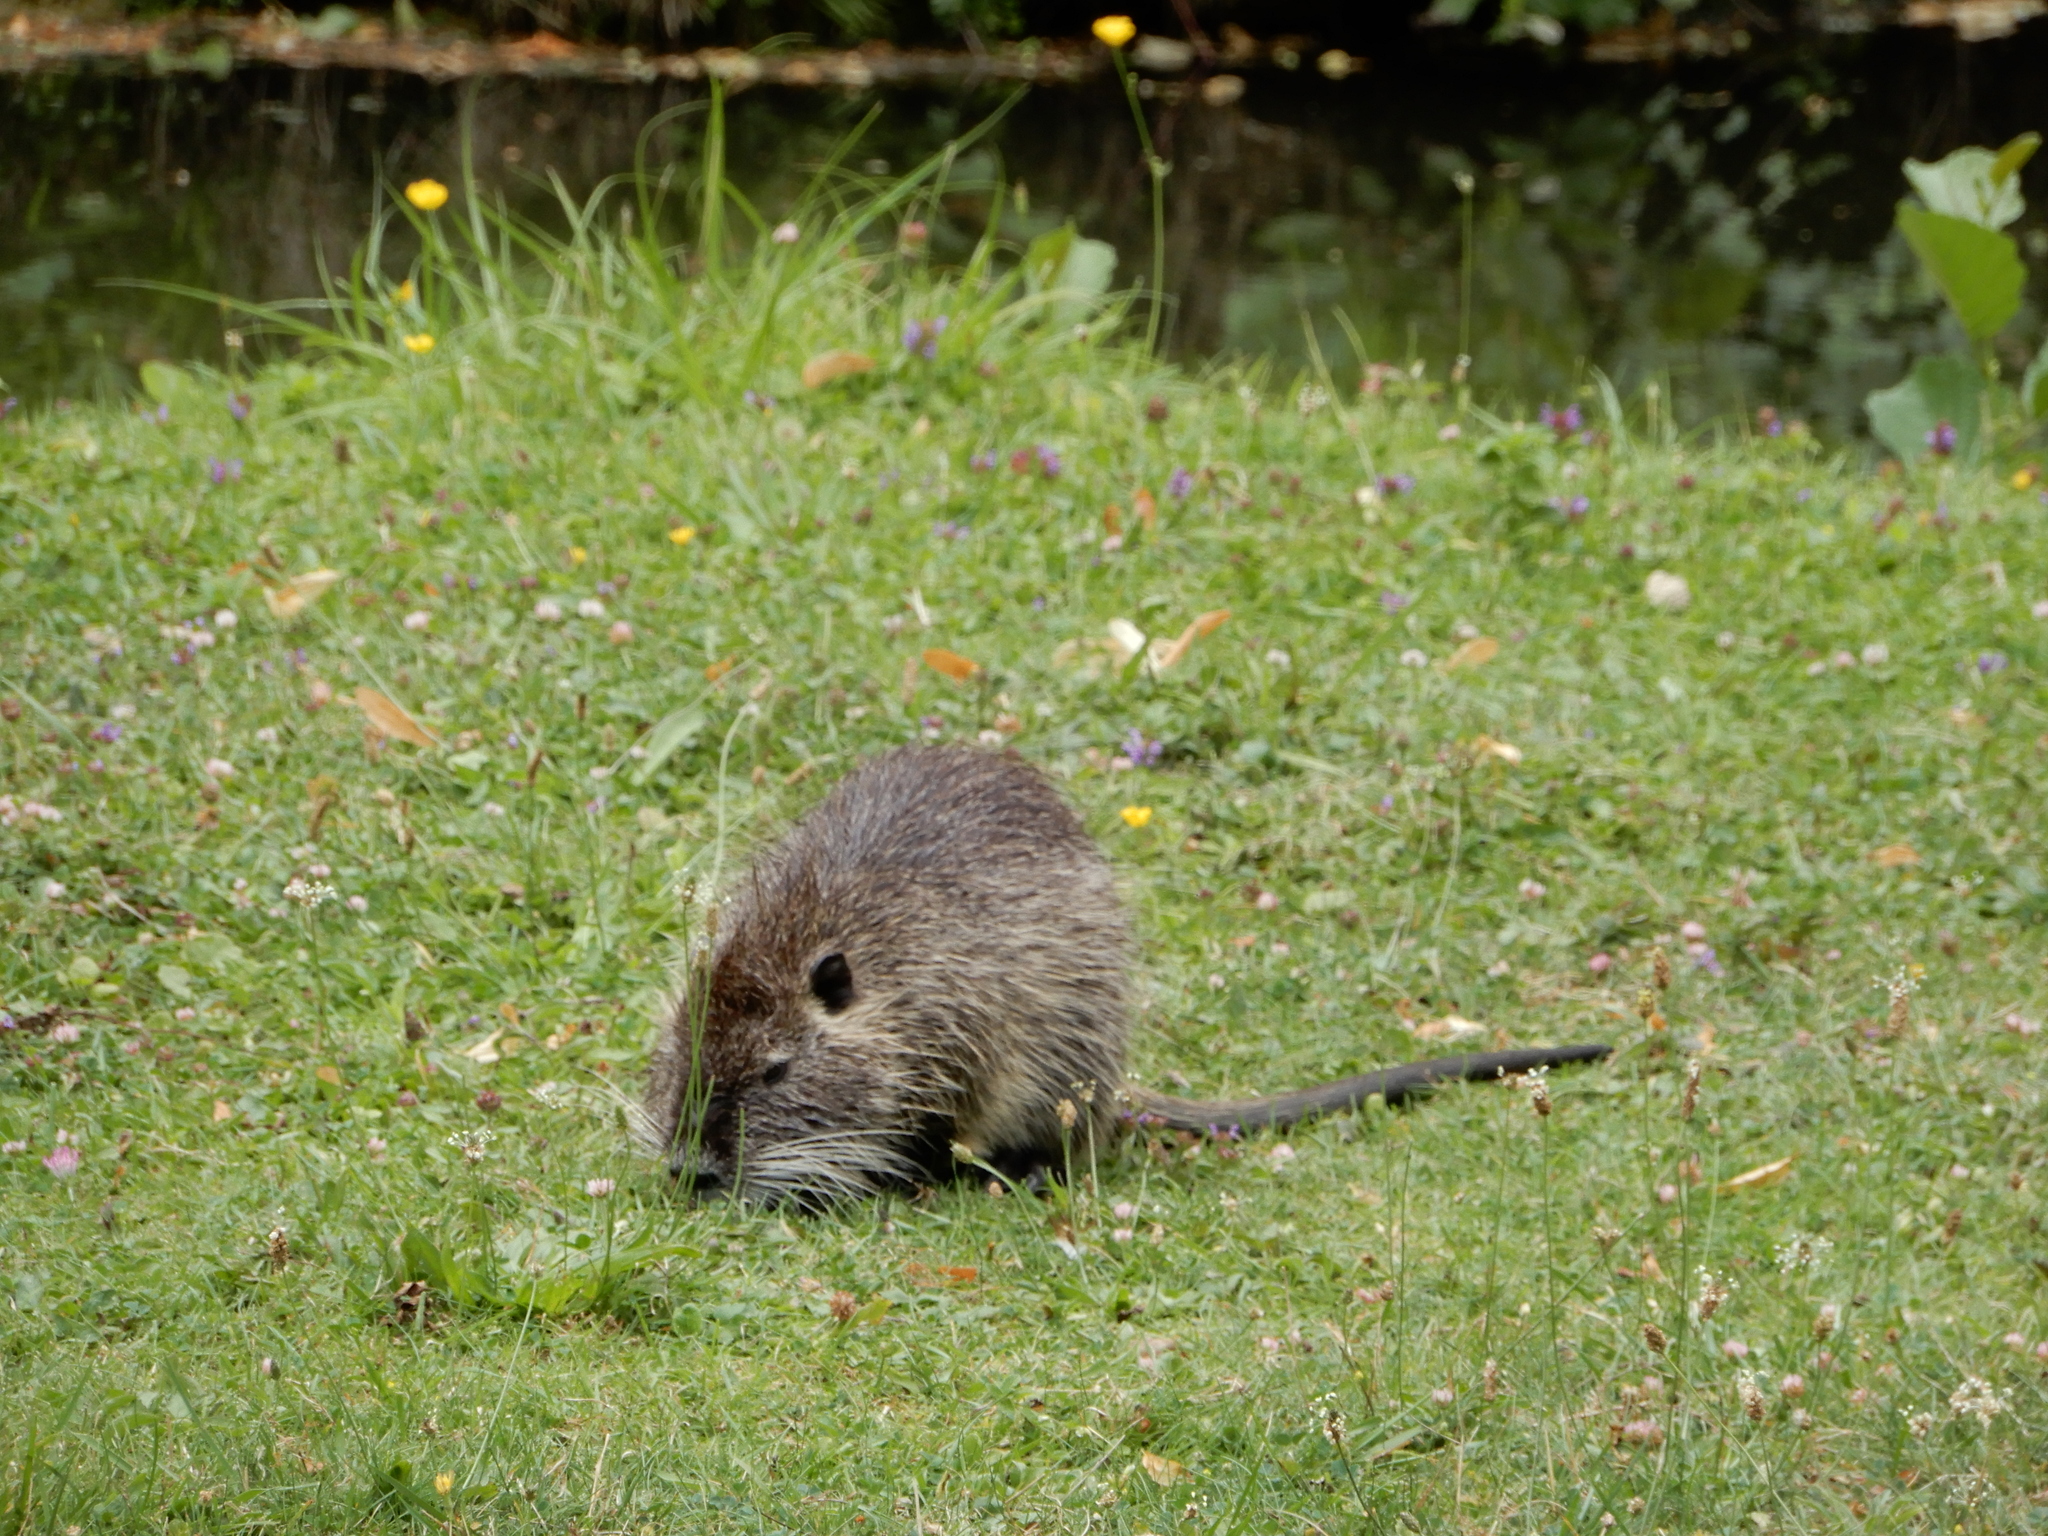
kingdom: Animalia
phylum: Chordata
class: Mammalia
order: Rodentia
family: Myocastoridae
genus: Myocastor
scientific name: Myocastor coypus
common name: Coypu
